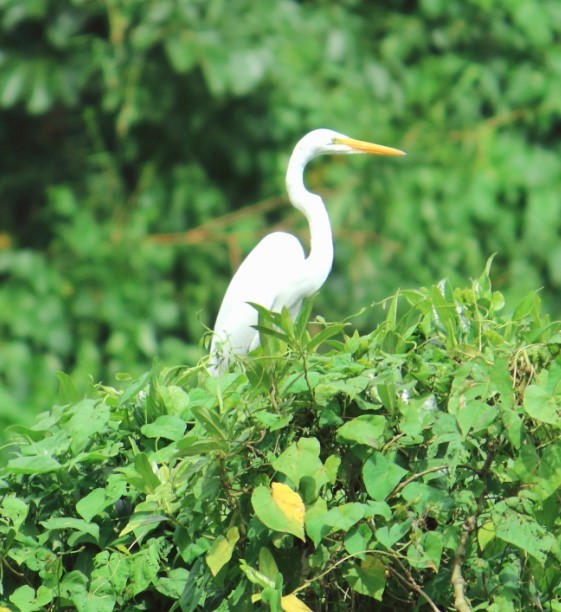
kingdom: Animalia
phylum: Chordata
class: Aves
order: Pelecaniformes
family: Ardeidae
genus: Ardea
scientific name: Ardea alba
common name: Great egret
